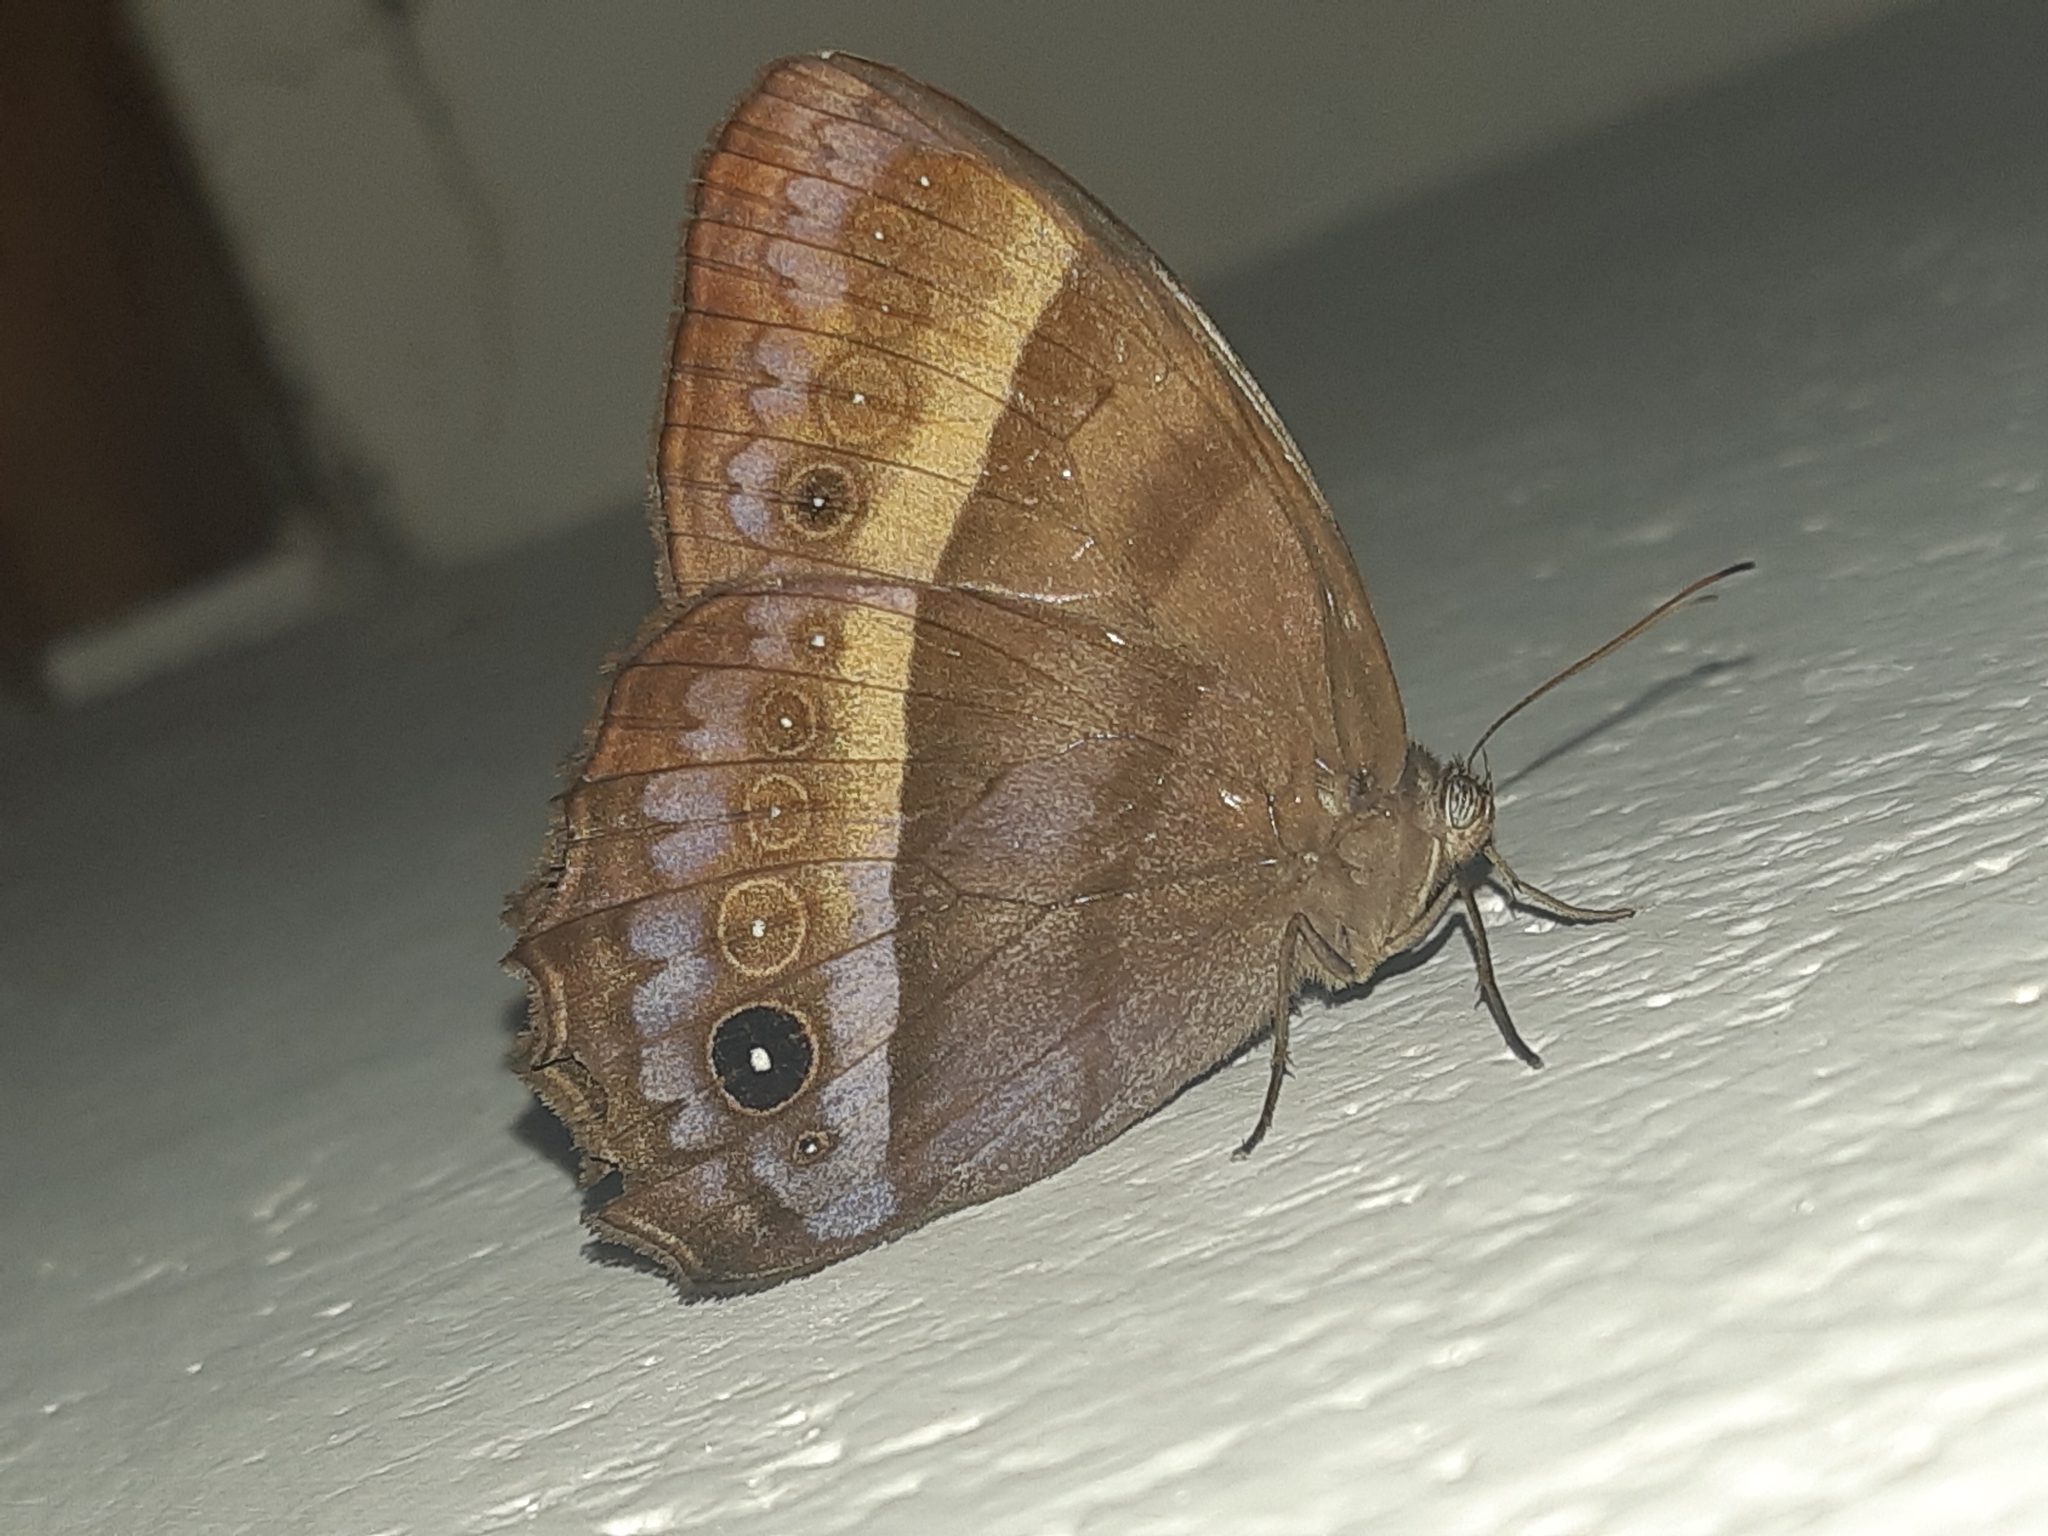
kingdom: Animalia
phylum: Arthropoda
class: Insecta
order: Lepidoptera
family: Nymphalidae
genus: Taygetis
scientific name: Taygetis andromeda
